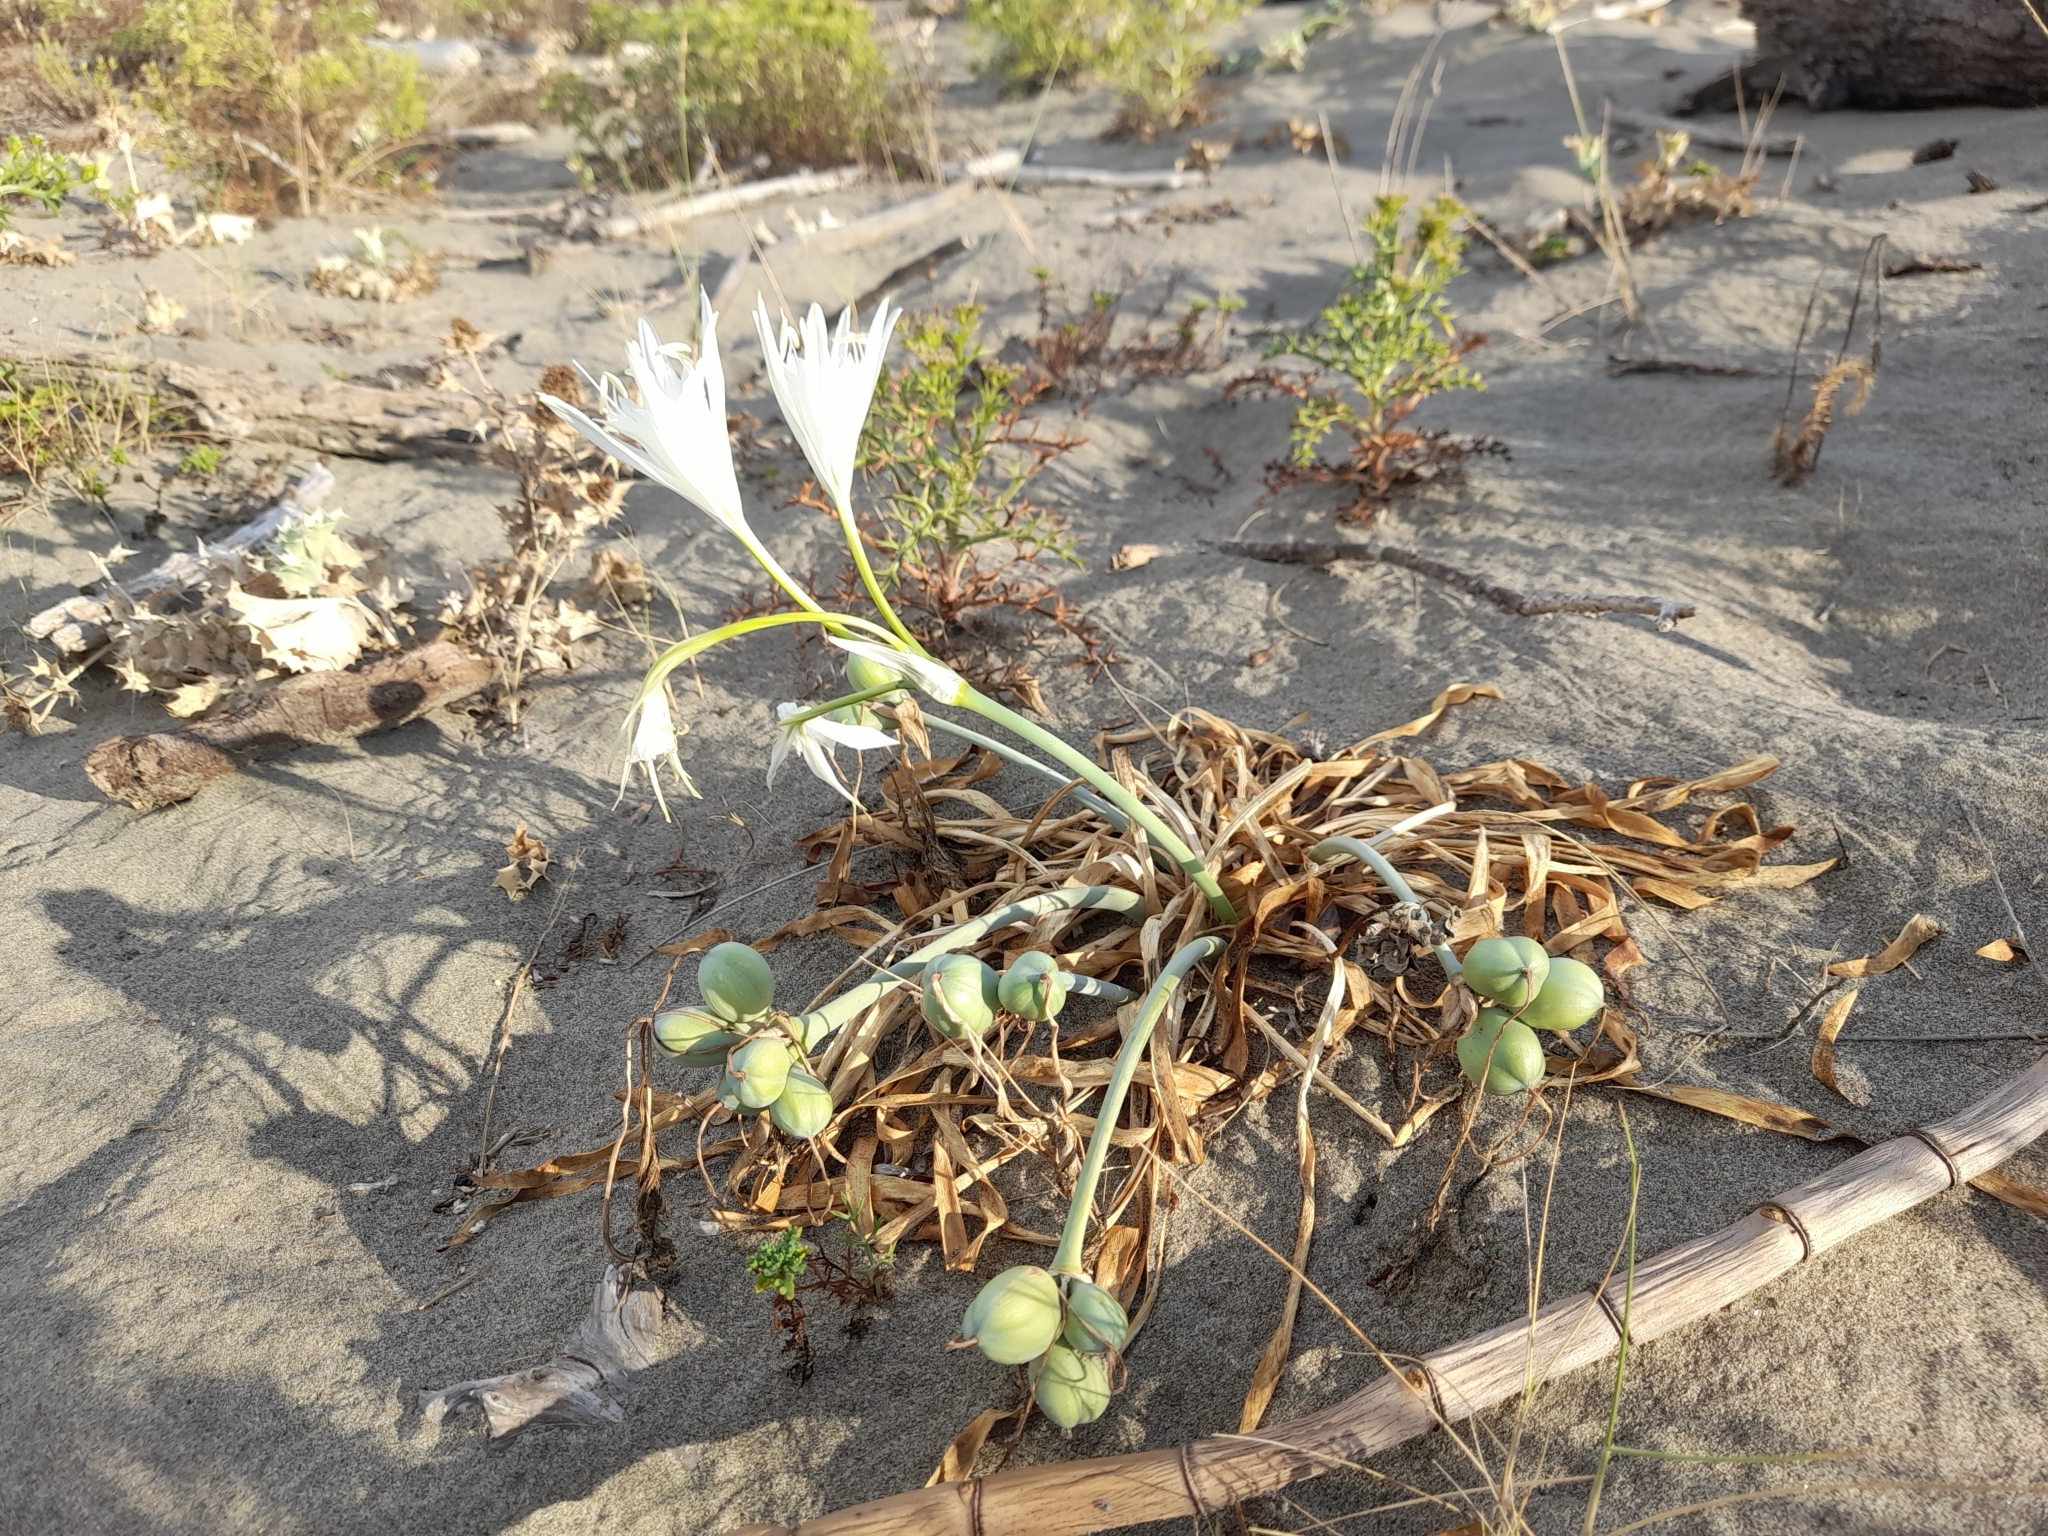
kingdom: Plantae
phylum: Tracheophyta
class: Liliopsida
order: Asparagales
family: Amaryllidaceae
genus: Pancratium
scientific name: Pancratium maritimum
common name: Sea-daffodil
